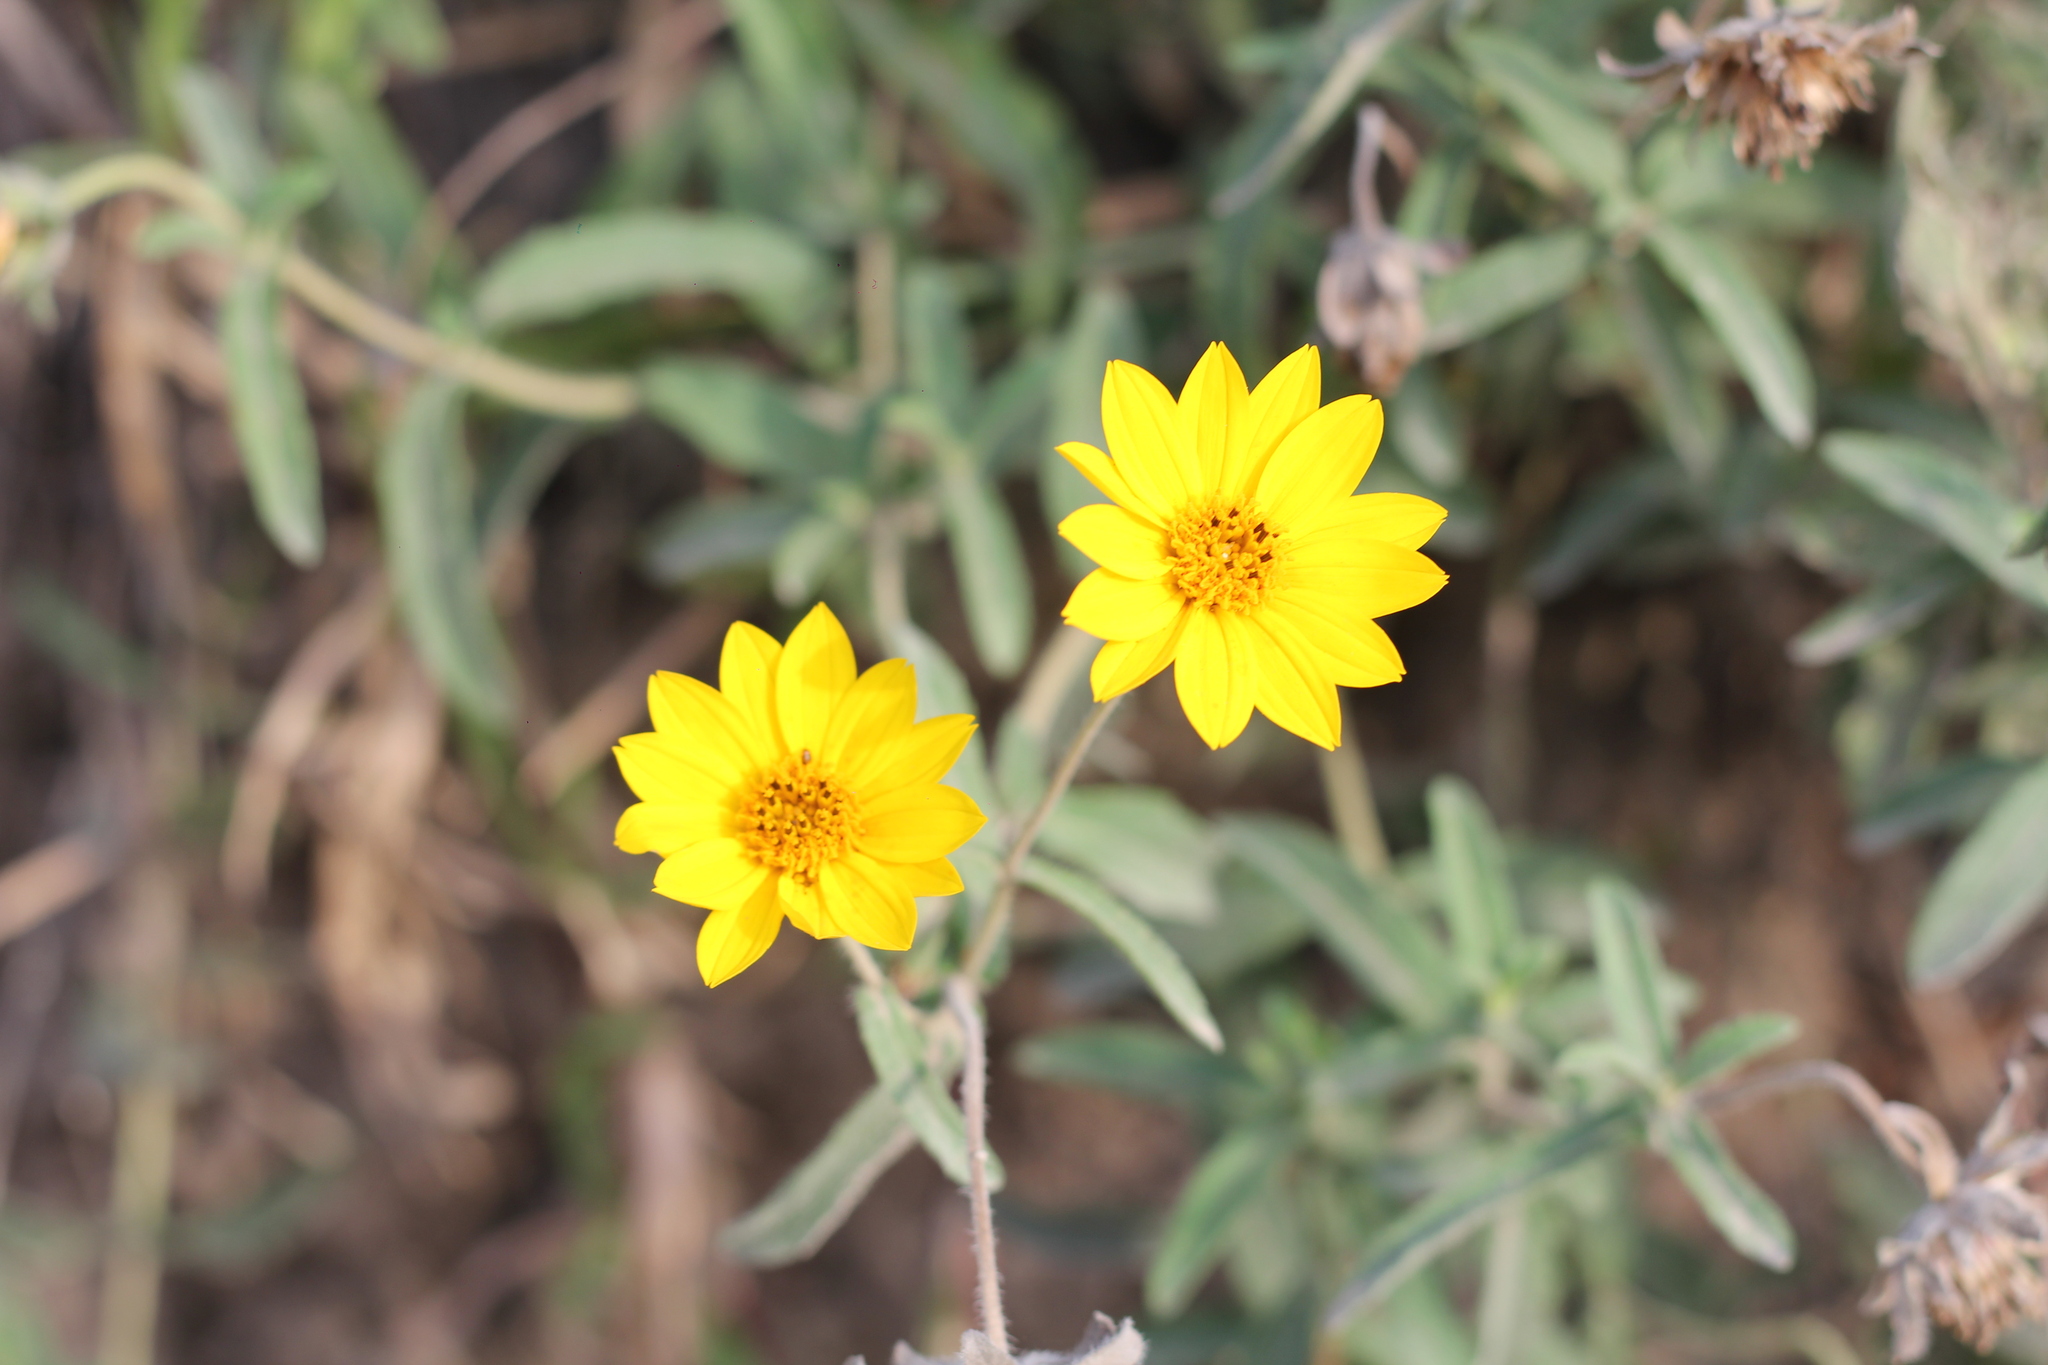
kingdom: Plantae
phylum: Tracheophyta
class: Magnoliopsida
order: Asterales
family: Asteraceae
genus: Wedelia
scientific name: Wedelia montevidensis
